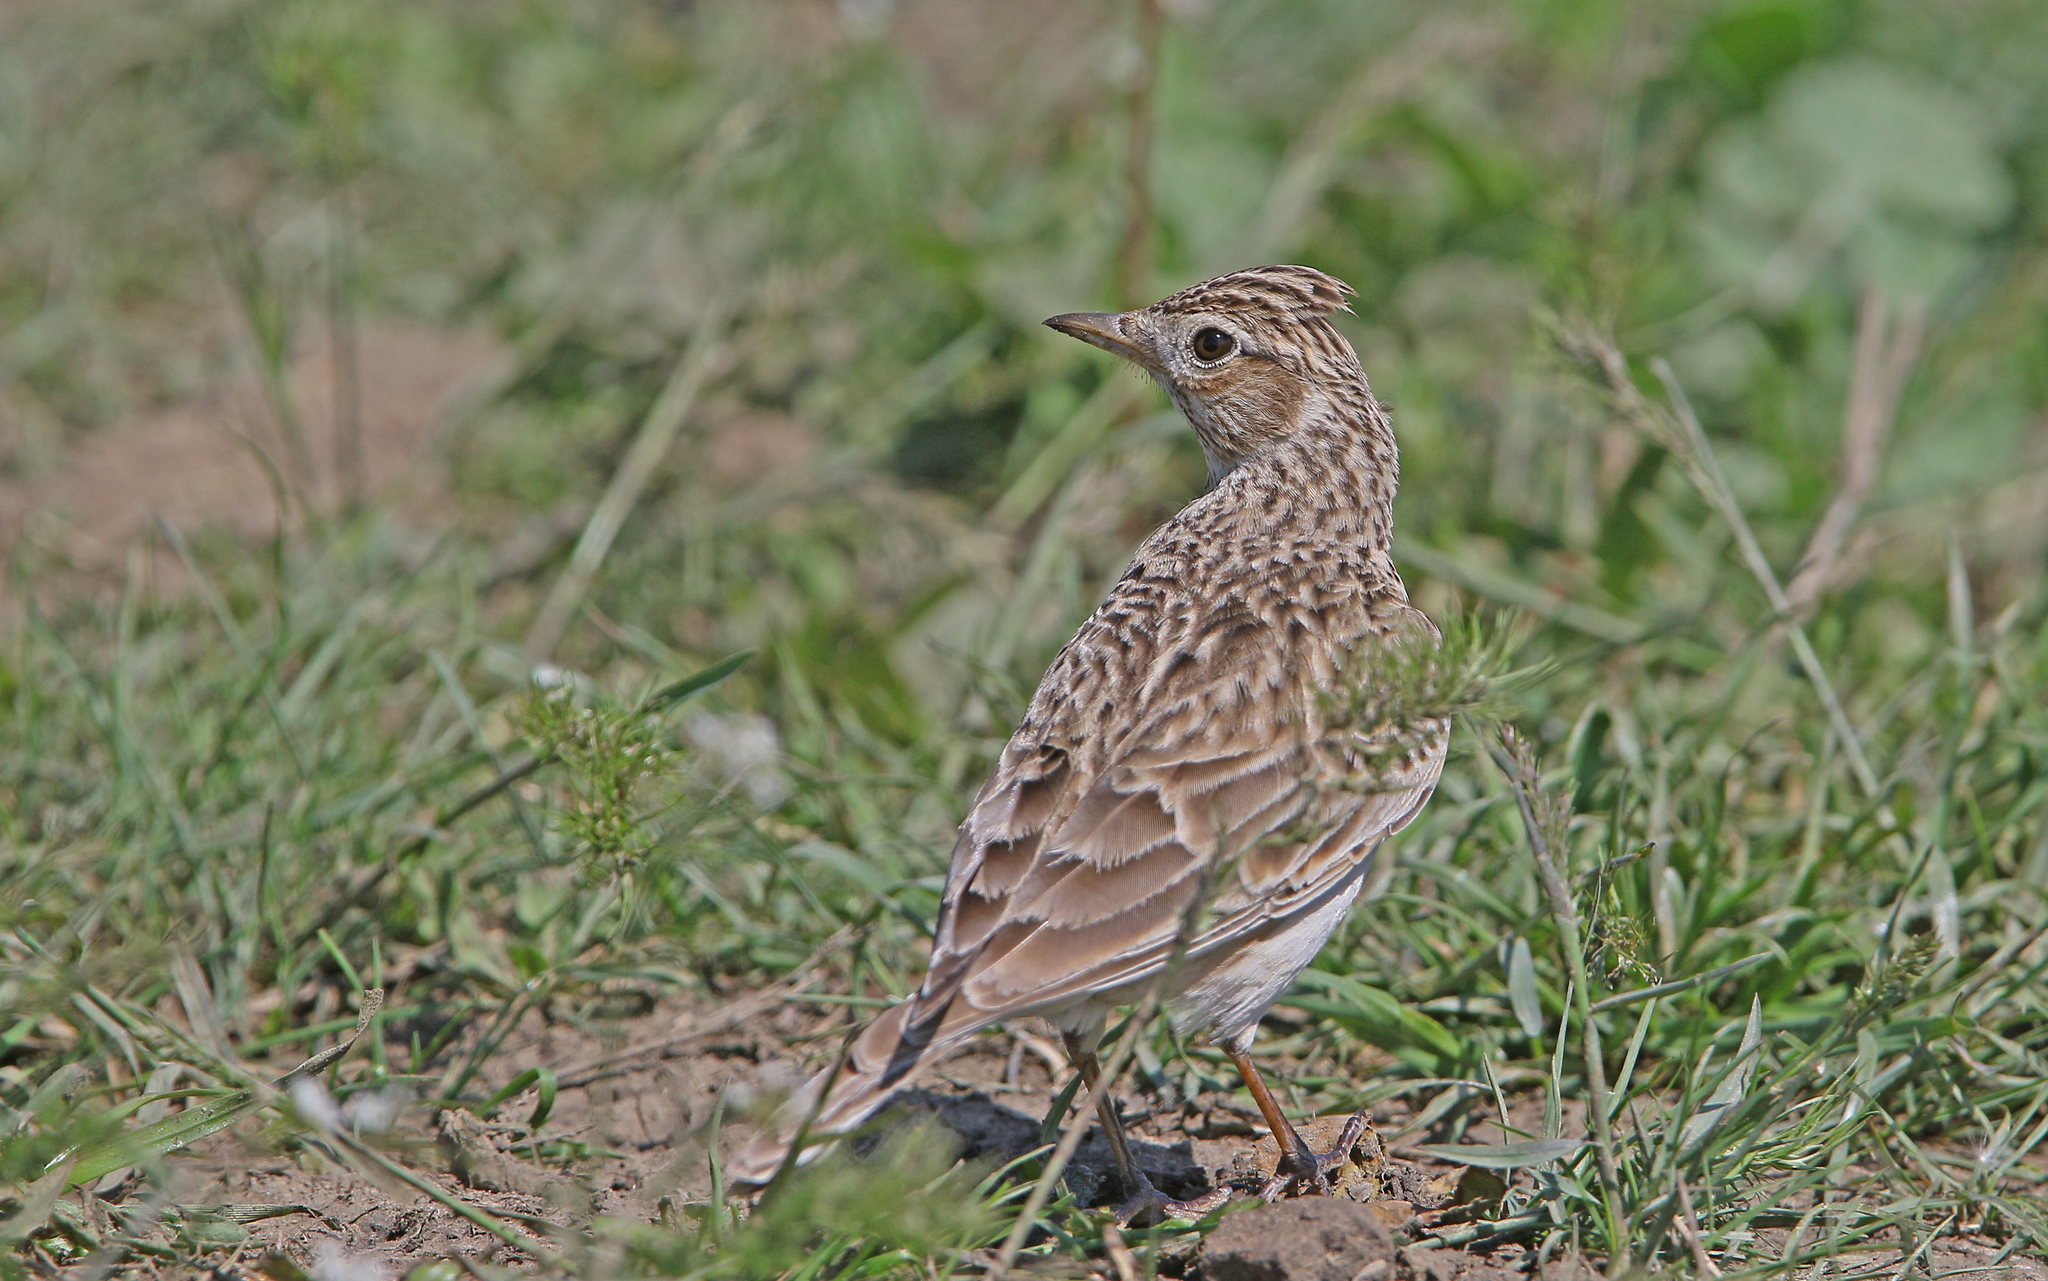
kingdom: Animalia
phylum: Chordata
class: Aves
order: Passeriformes
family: Alaudidae
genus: Alauda
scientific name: Alauda arvensis
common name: Eurasian skylark
